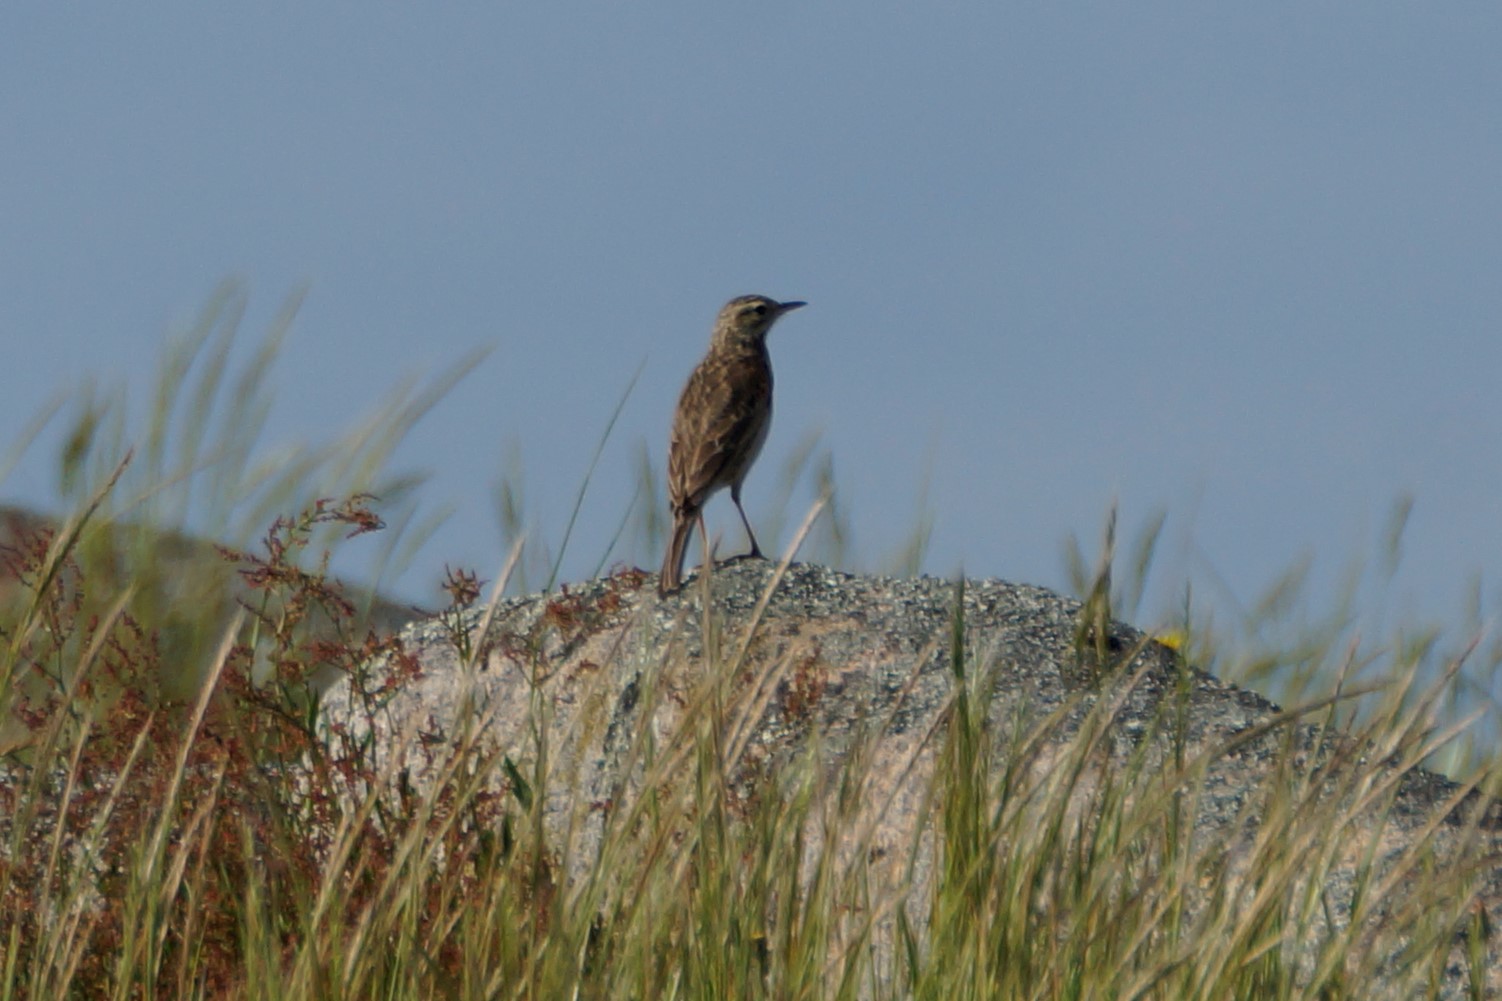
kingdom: Animalia
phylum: Chordata
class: Aves
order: Passeriformes
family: Motacillidae
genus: Anthus
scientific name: Anthus australis
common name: Australian pipit
